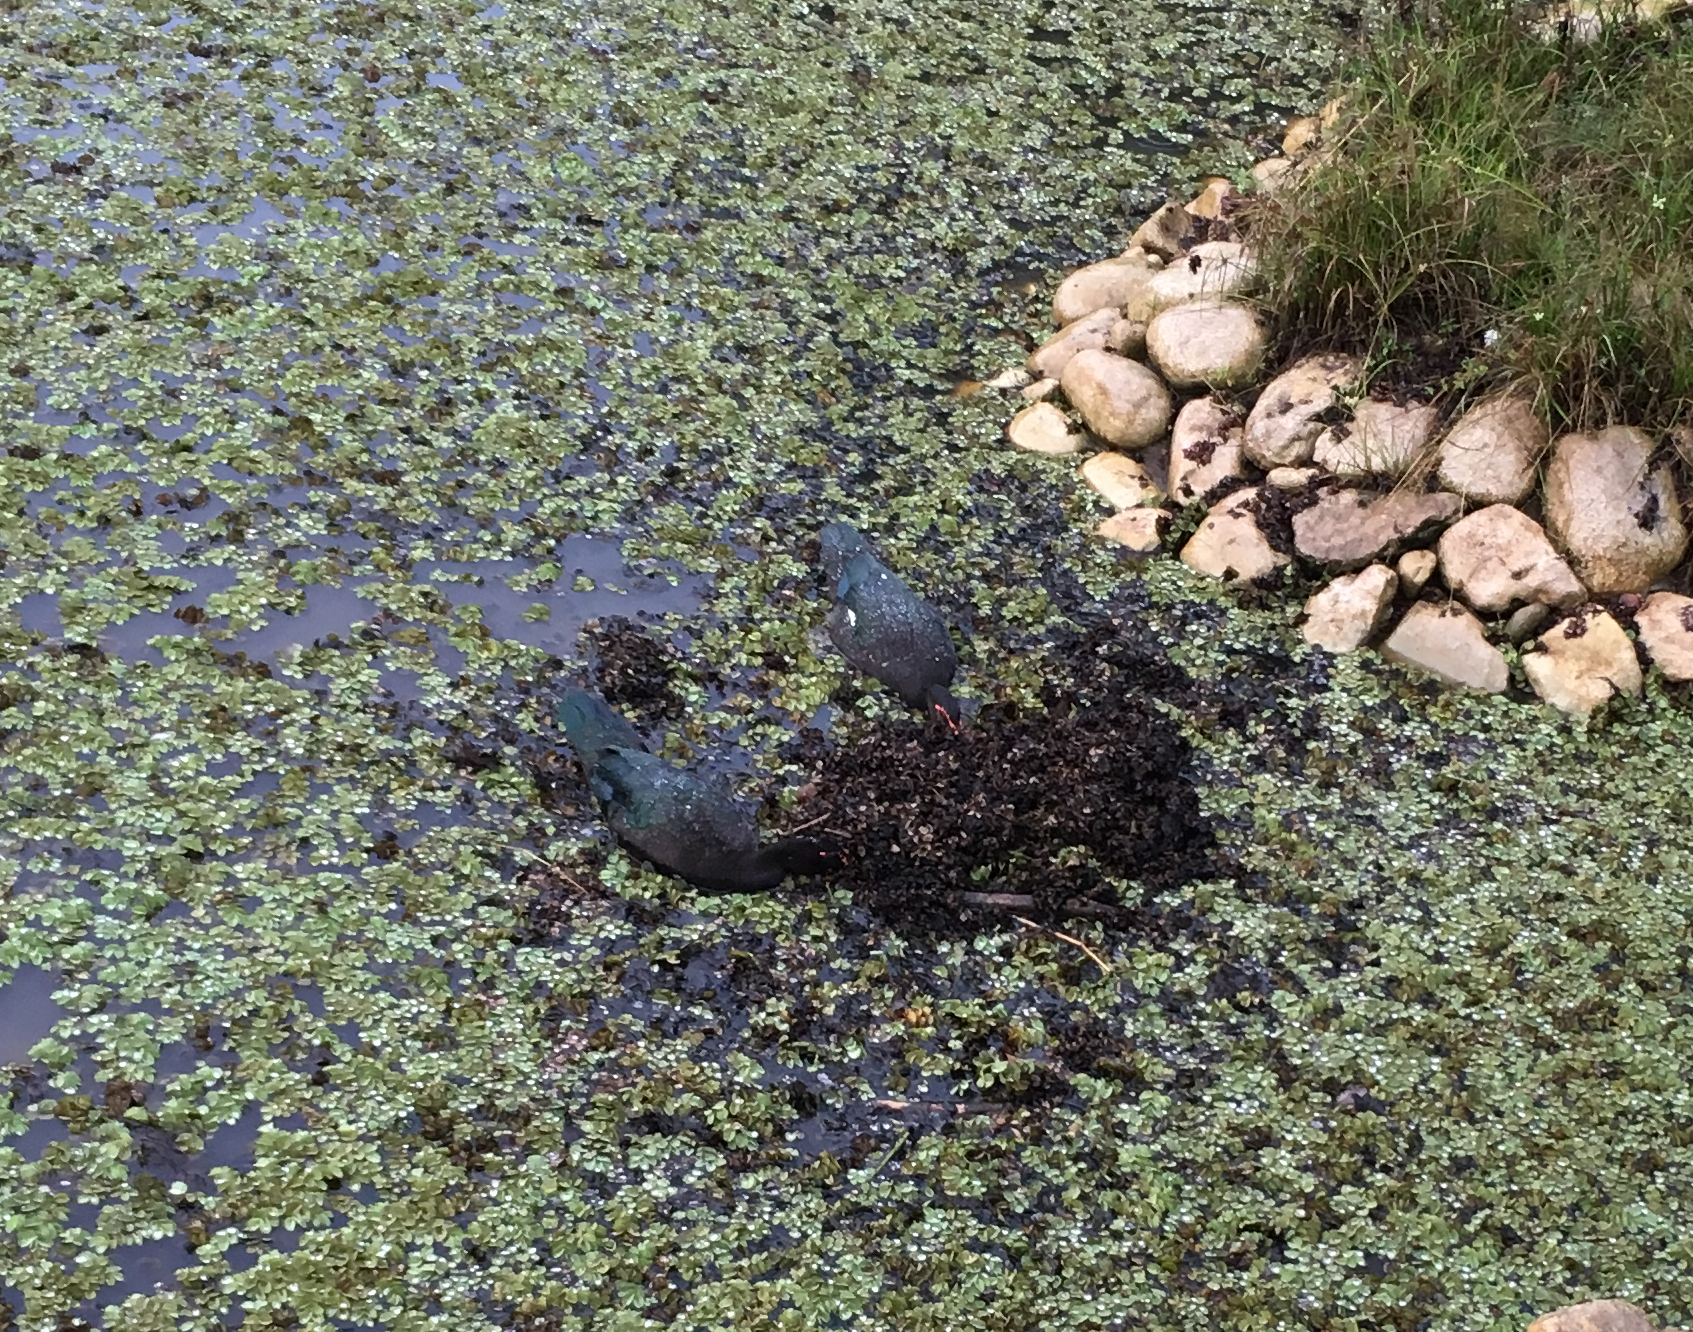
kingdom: Animalia
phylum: Chordata
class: Aves
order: Anseriformes
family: Anatidae
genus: Cairina
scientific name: Cairina moschata
